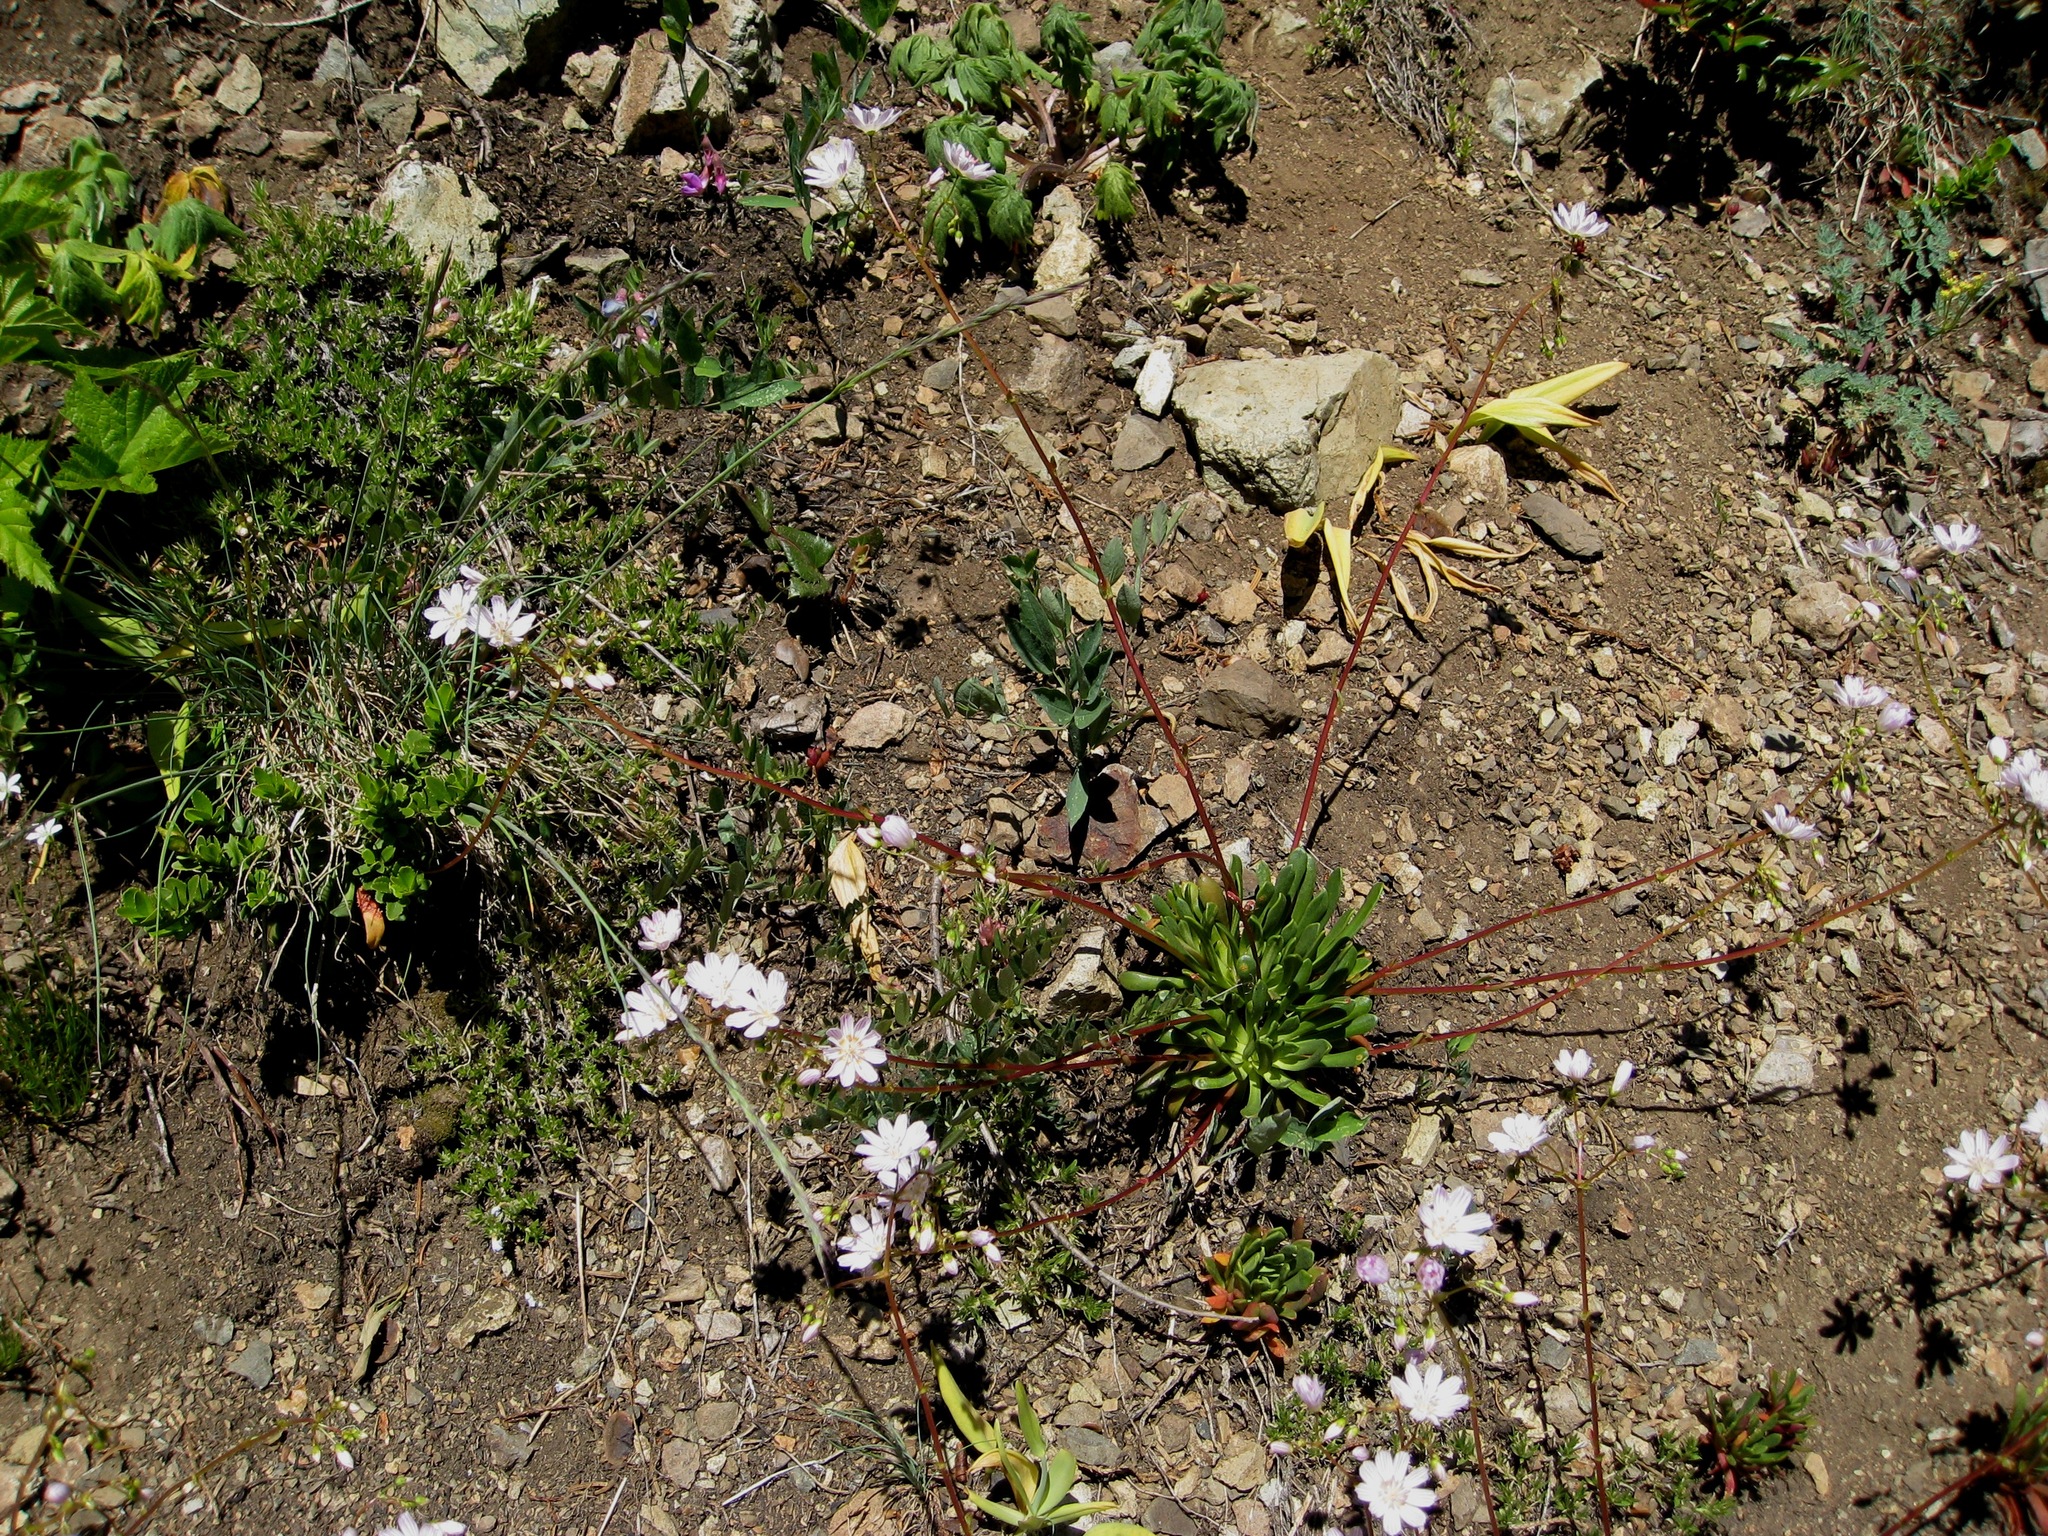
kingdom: Plantae
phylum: Tracheophyta
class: Magnoliopsida
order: Caryophyllales
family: Montiaceae
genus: Lewisia
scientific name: Lewisia columbiana
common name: Columbia lewisia
